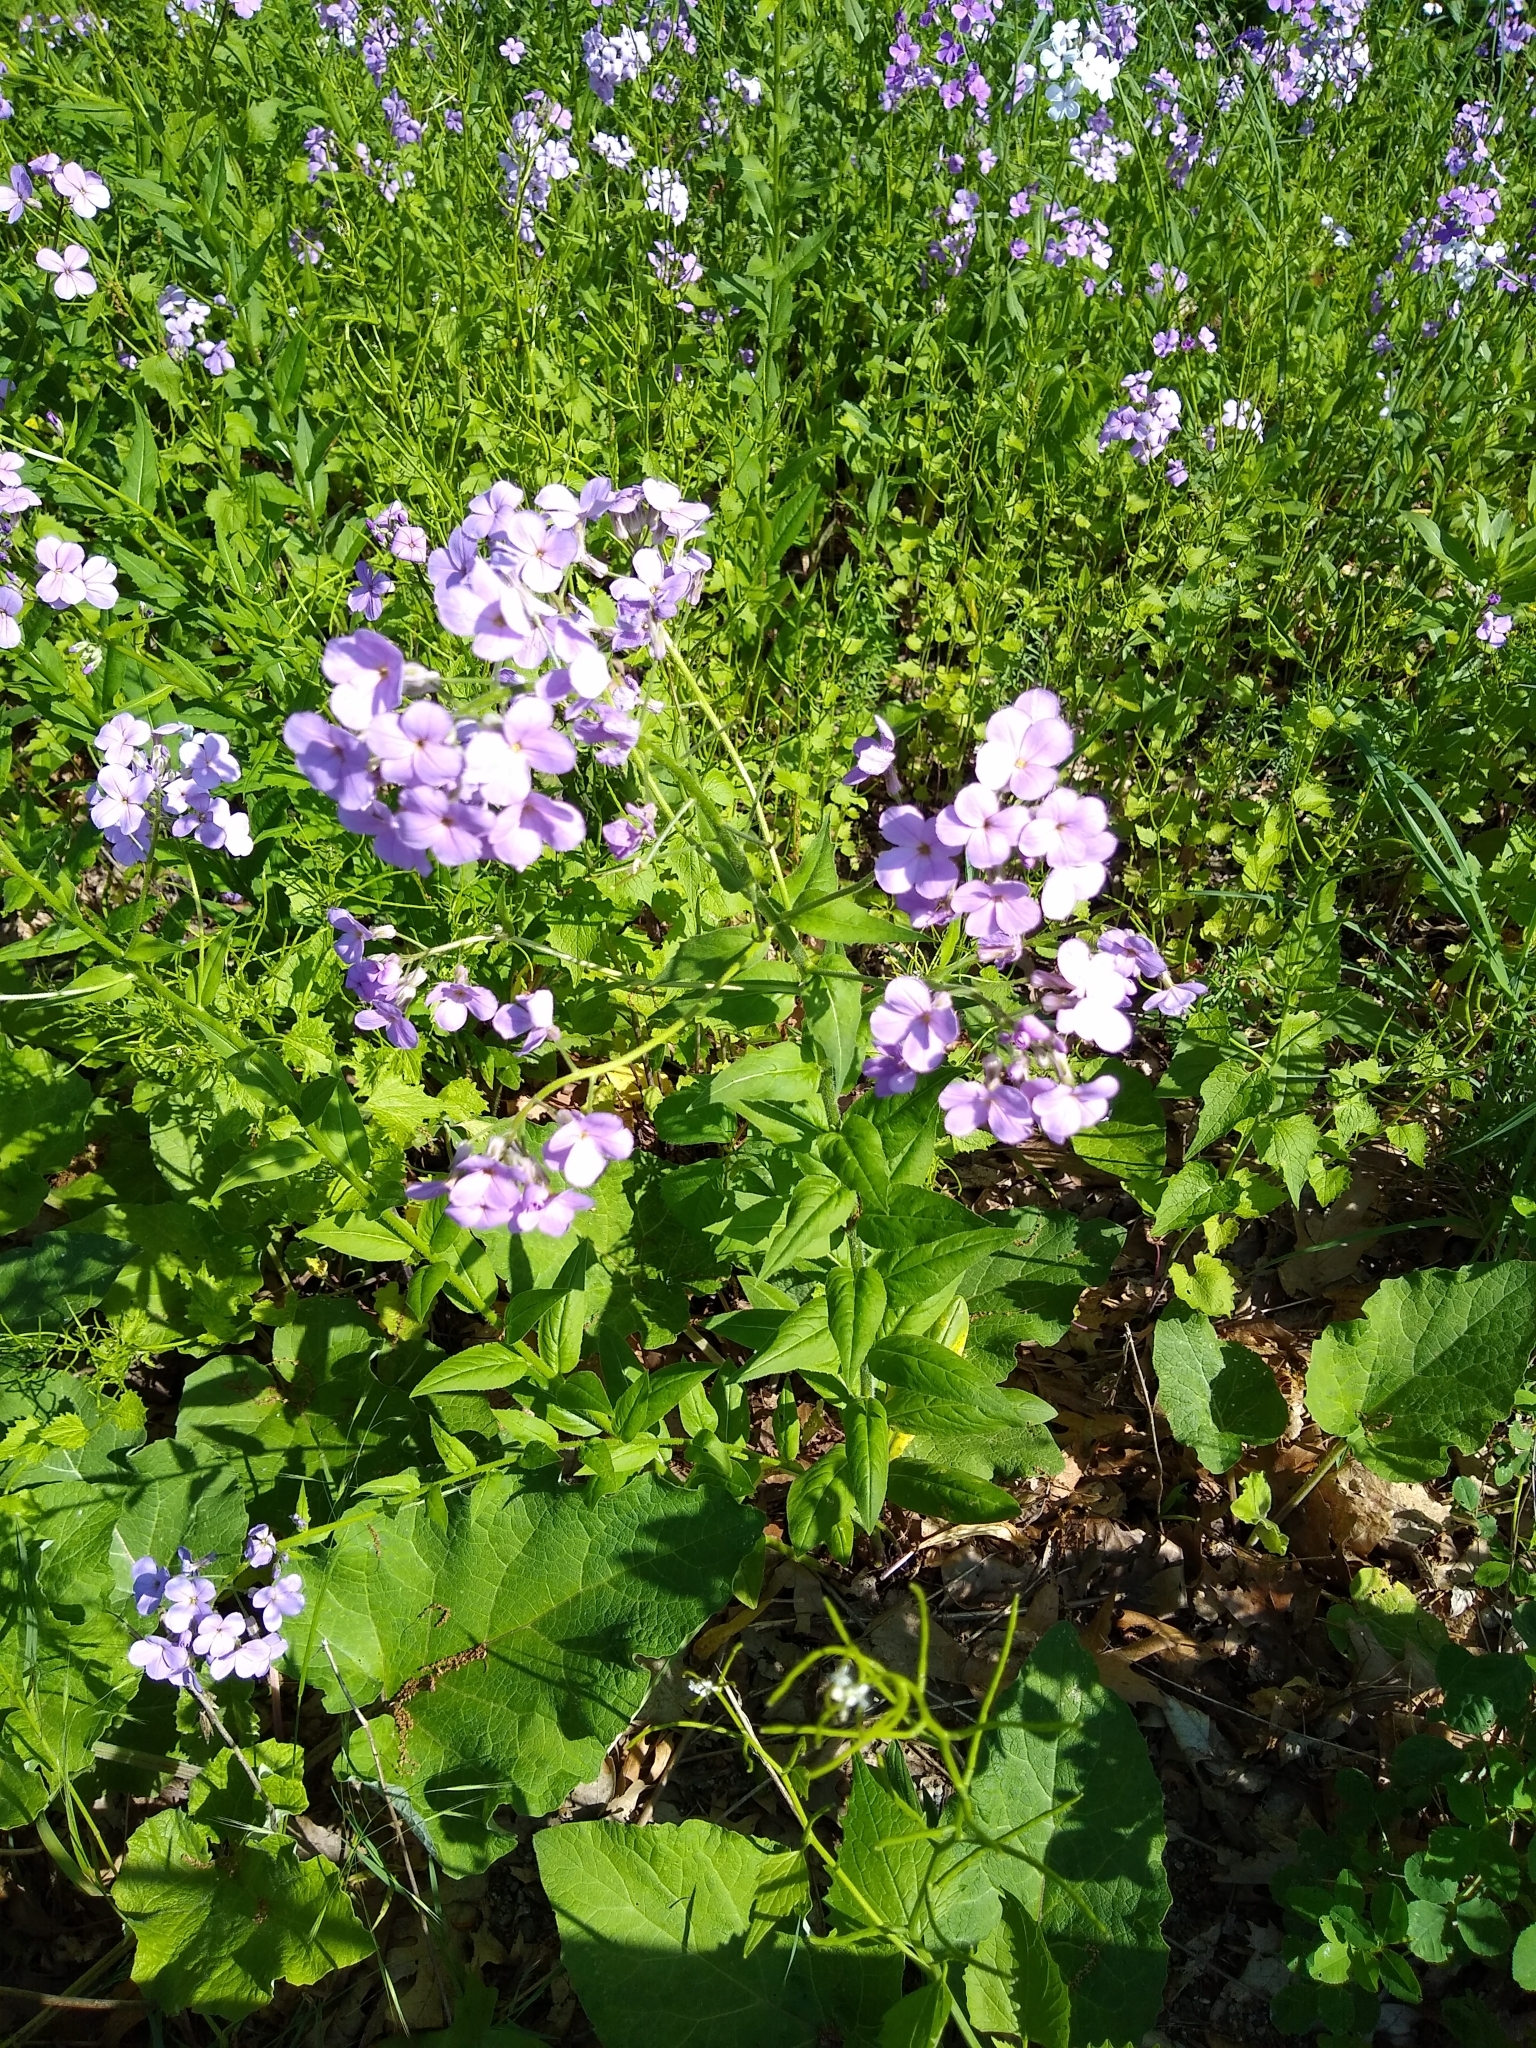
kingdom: Plantae
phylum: Tracheophyta
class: Magnoliopsida
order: Brassicales
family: Brassicaceae
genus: Hesperis
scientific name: Hesperis matronalis
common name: Dame's-violet
